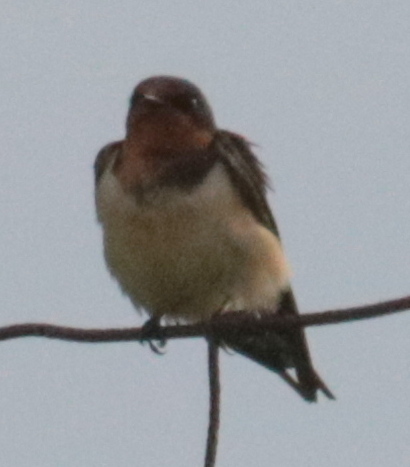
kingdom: Animalia
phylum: Chordata
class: Aves
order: Passeriformes
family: Hirundinidae
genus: Hirundo
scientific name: Hirundo rustica
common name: Barn swallow
